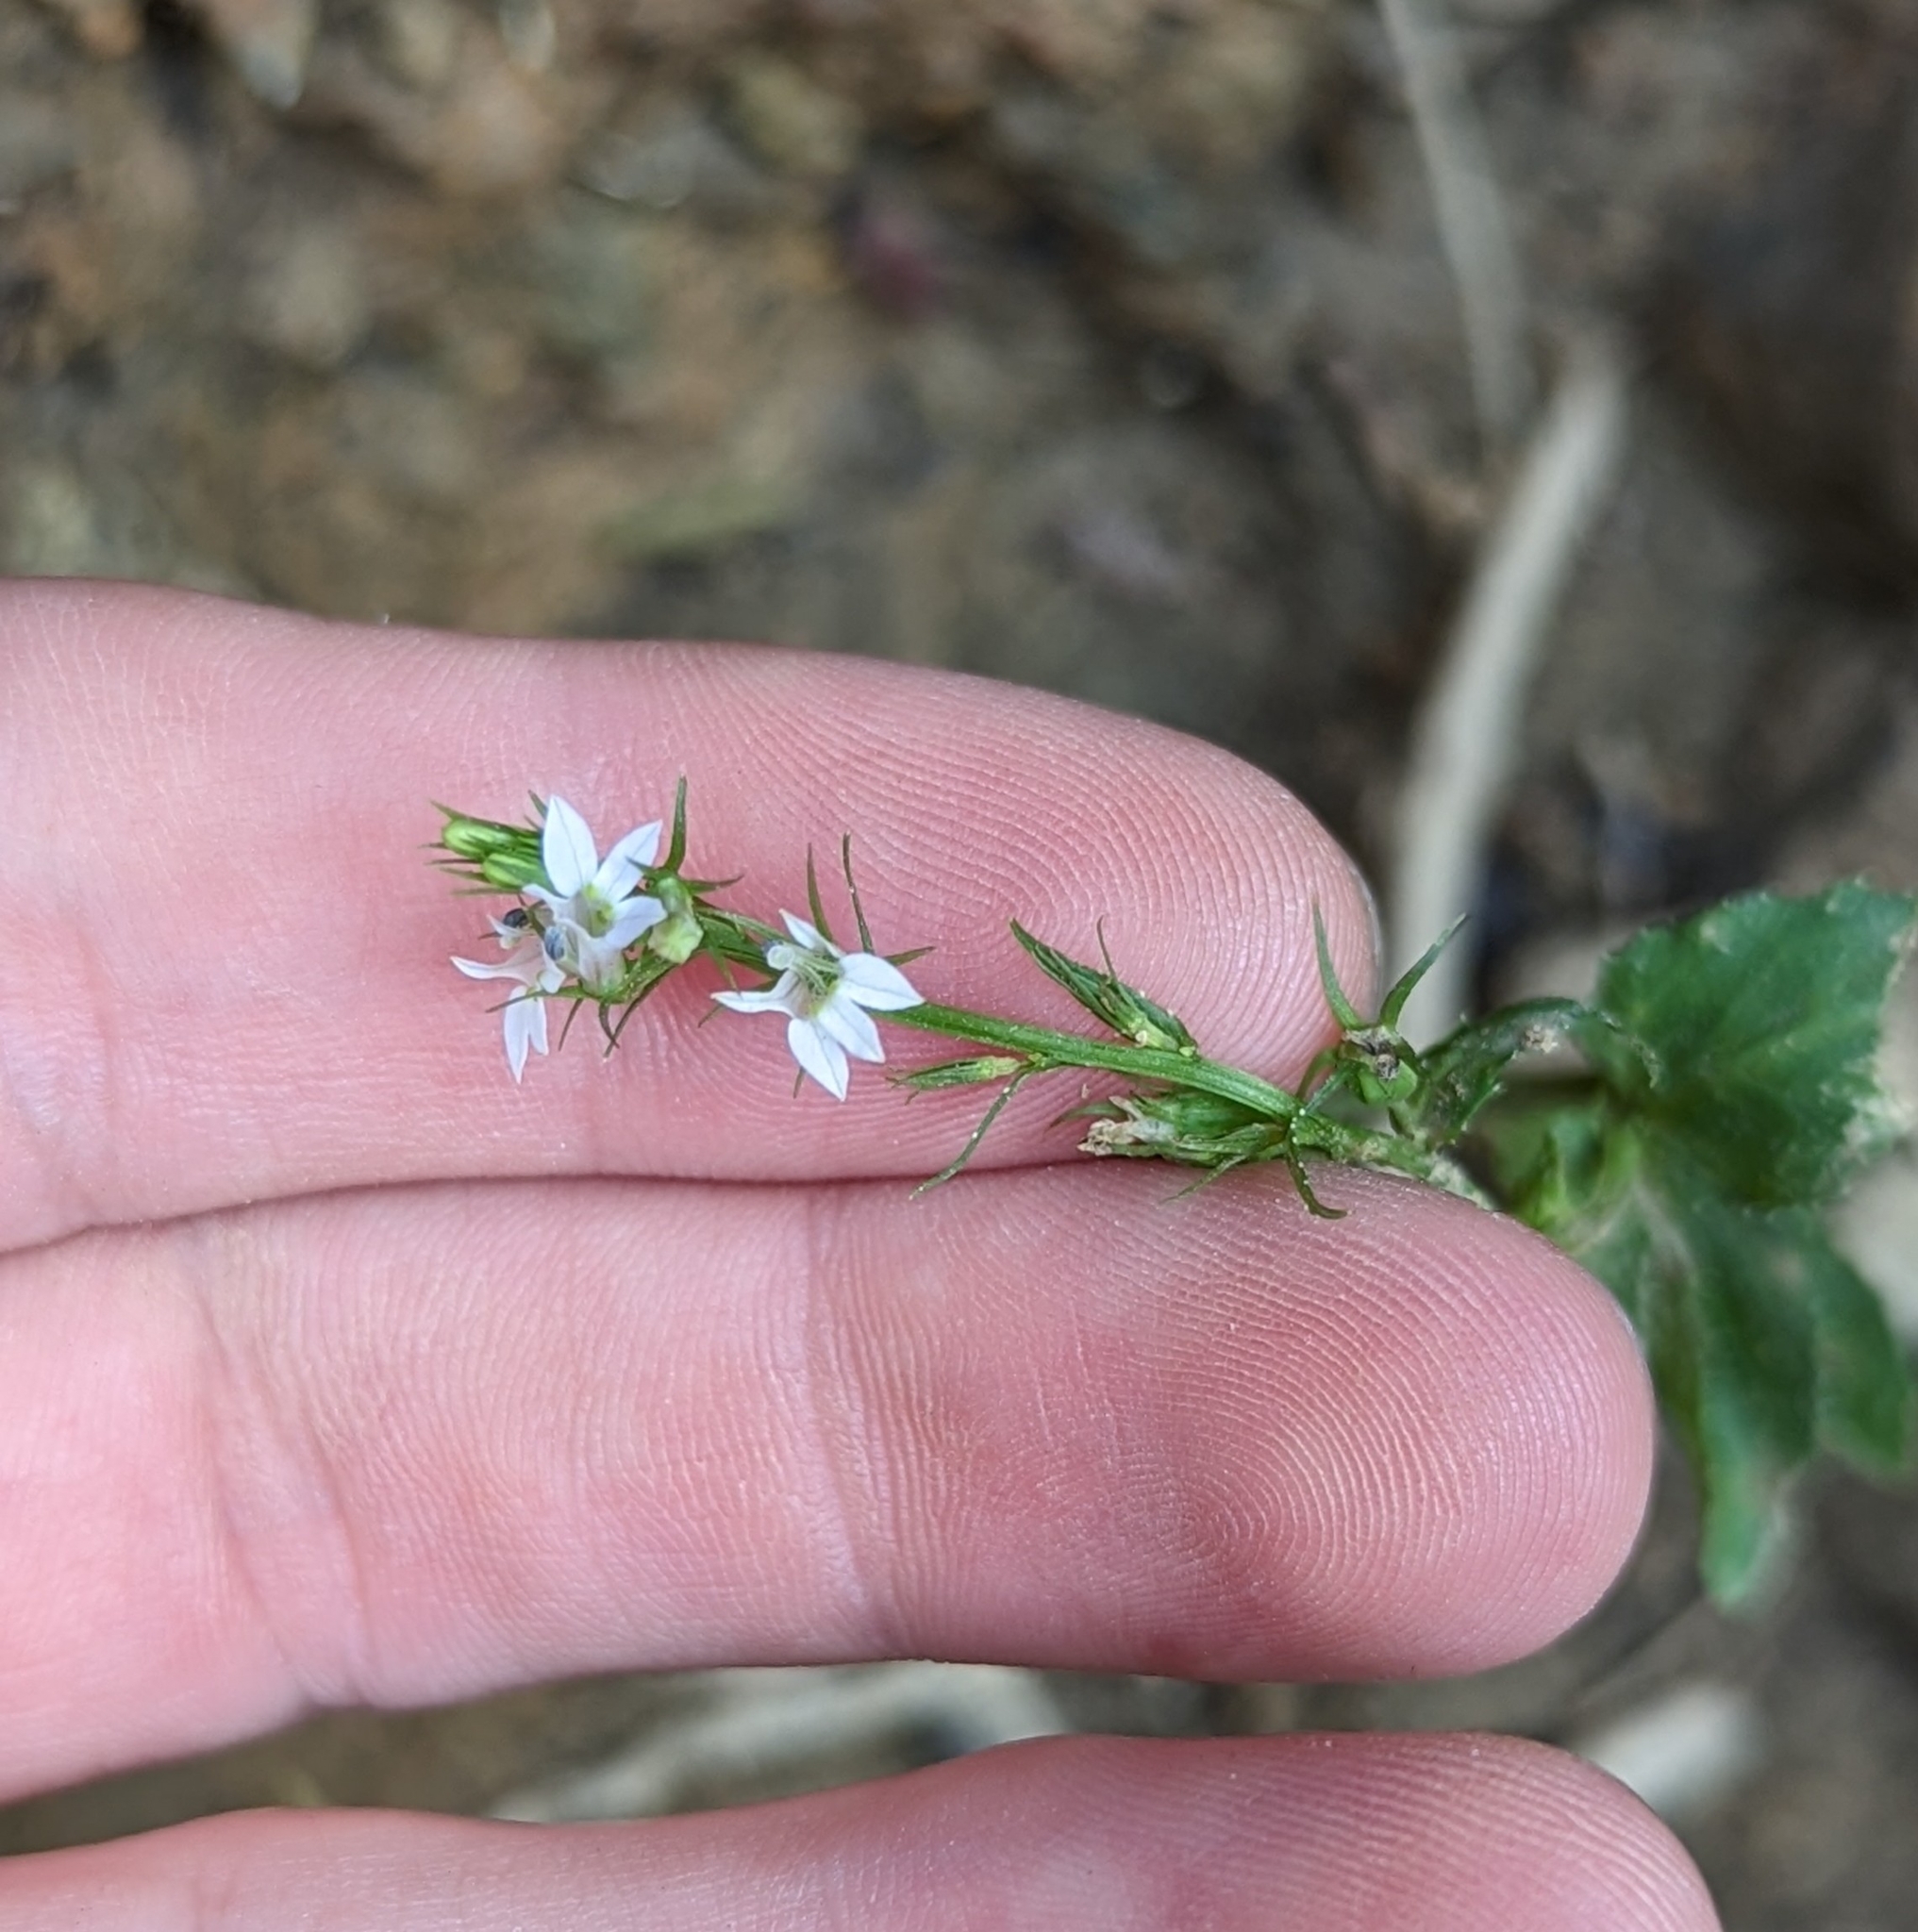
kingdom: Plantae
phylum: Tracheophyta
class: Magnoliopsida
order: Asterales
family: Campanulaceae
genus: Lobelia
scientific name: Lobelia inflata
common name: Indian tobacco
